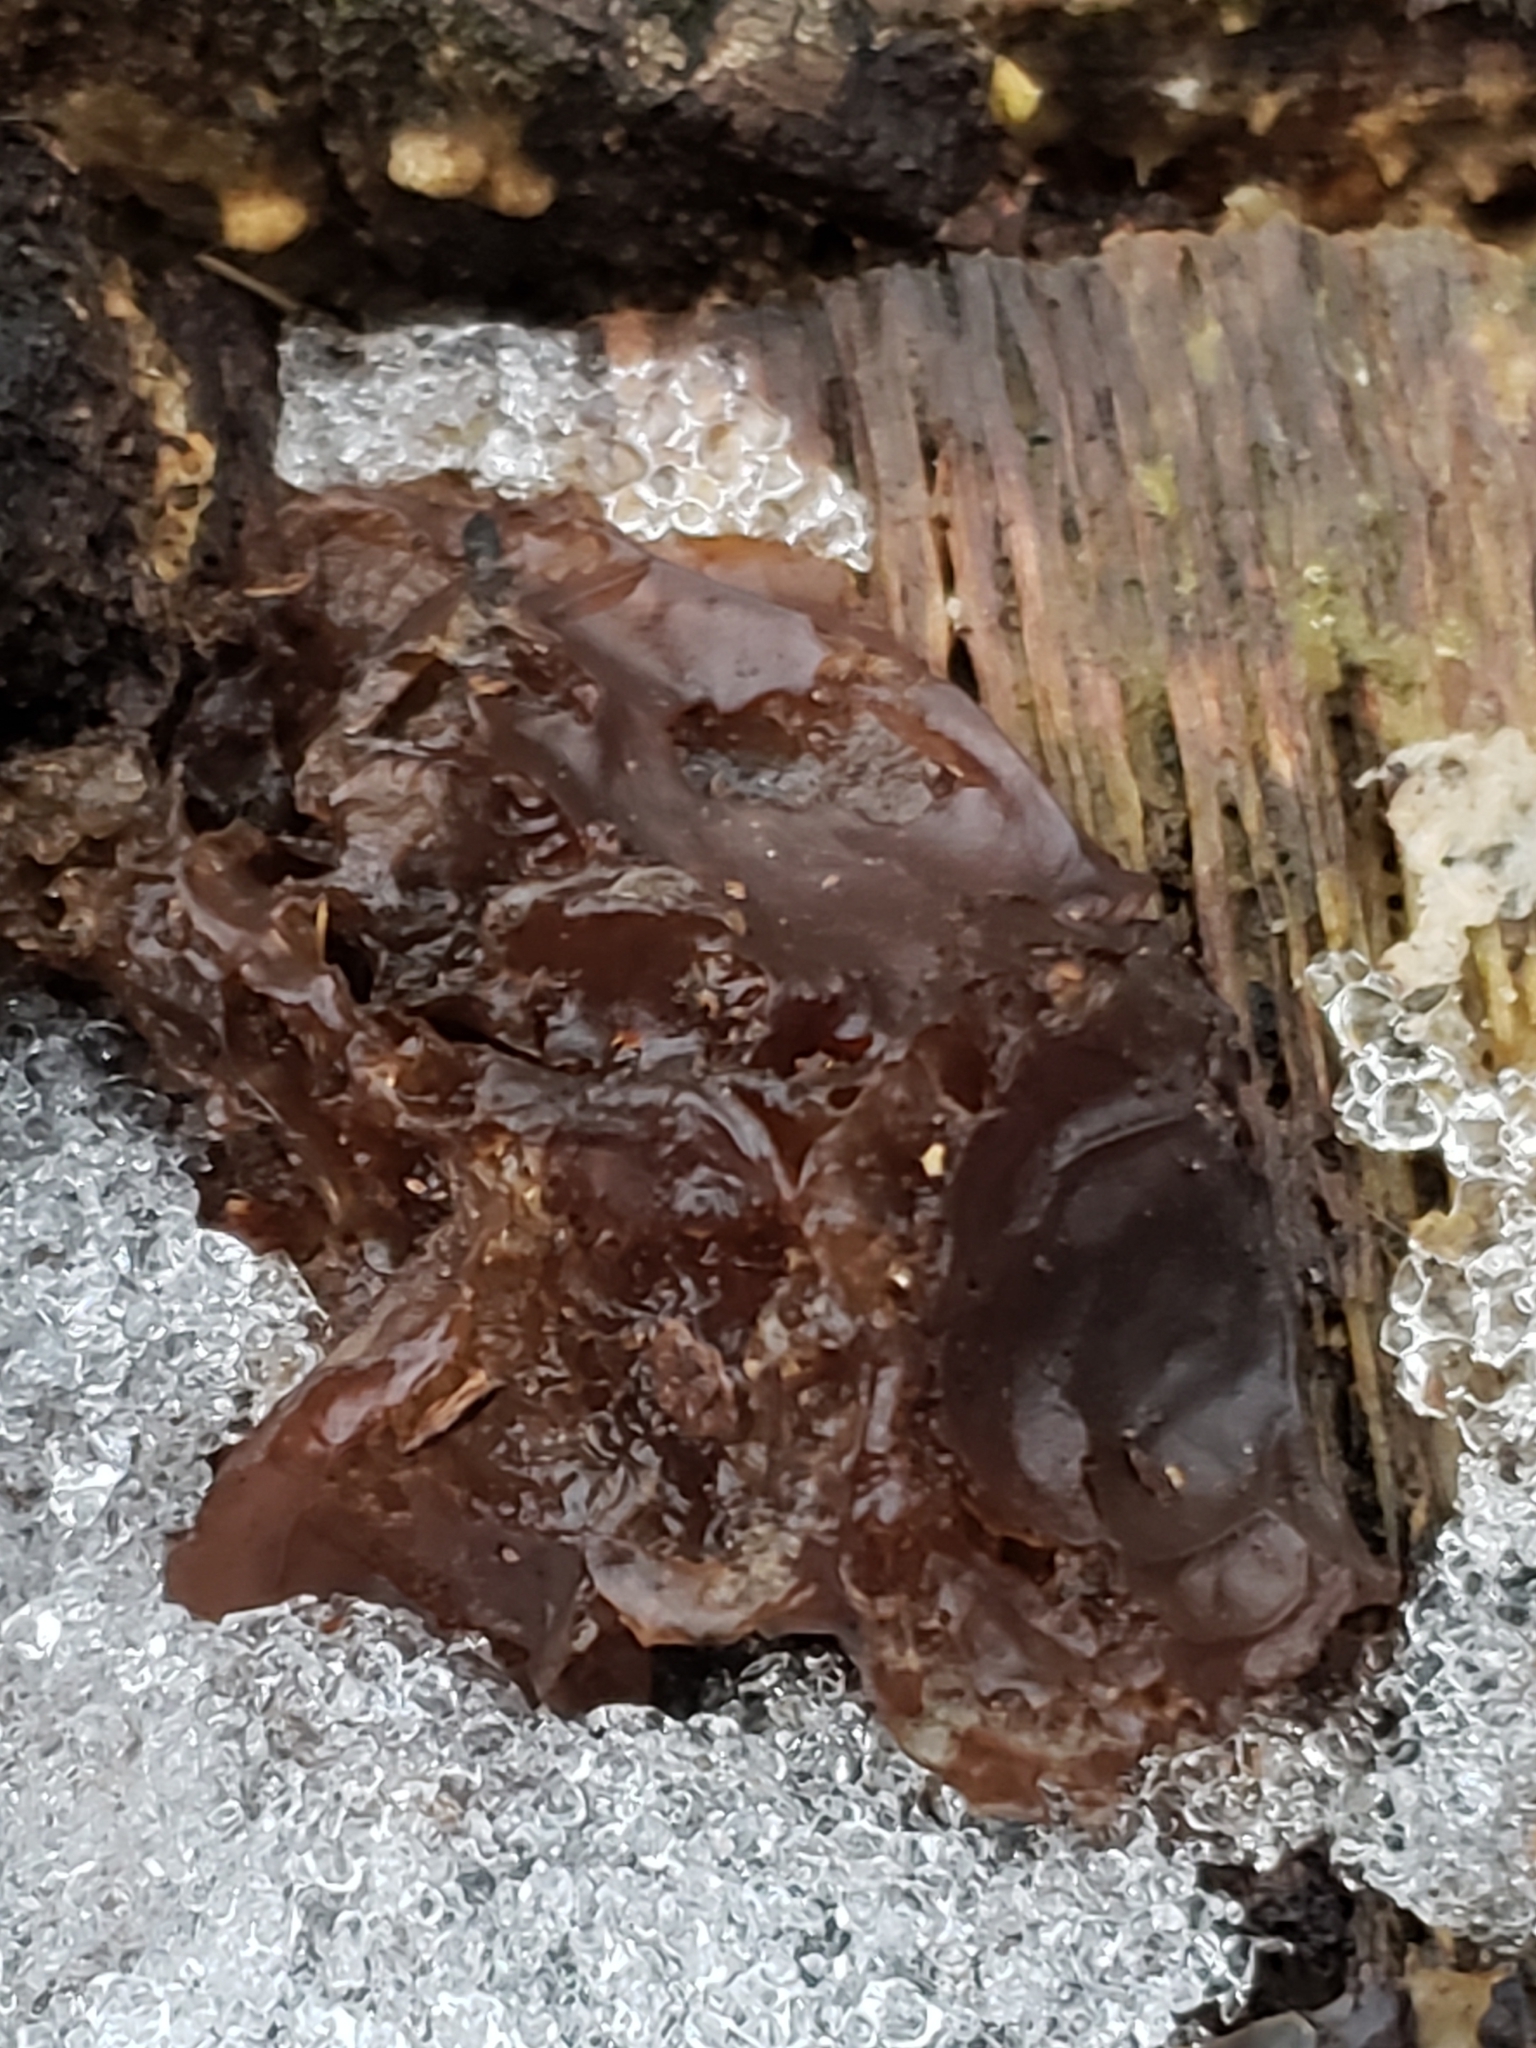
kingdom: Fungi
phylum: Basidiomycota
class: Agaricomycetes
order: Auriculariales
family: Auriculariaceae
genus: Exidia
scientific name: Exidia
